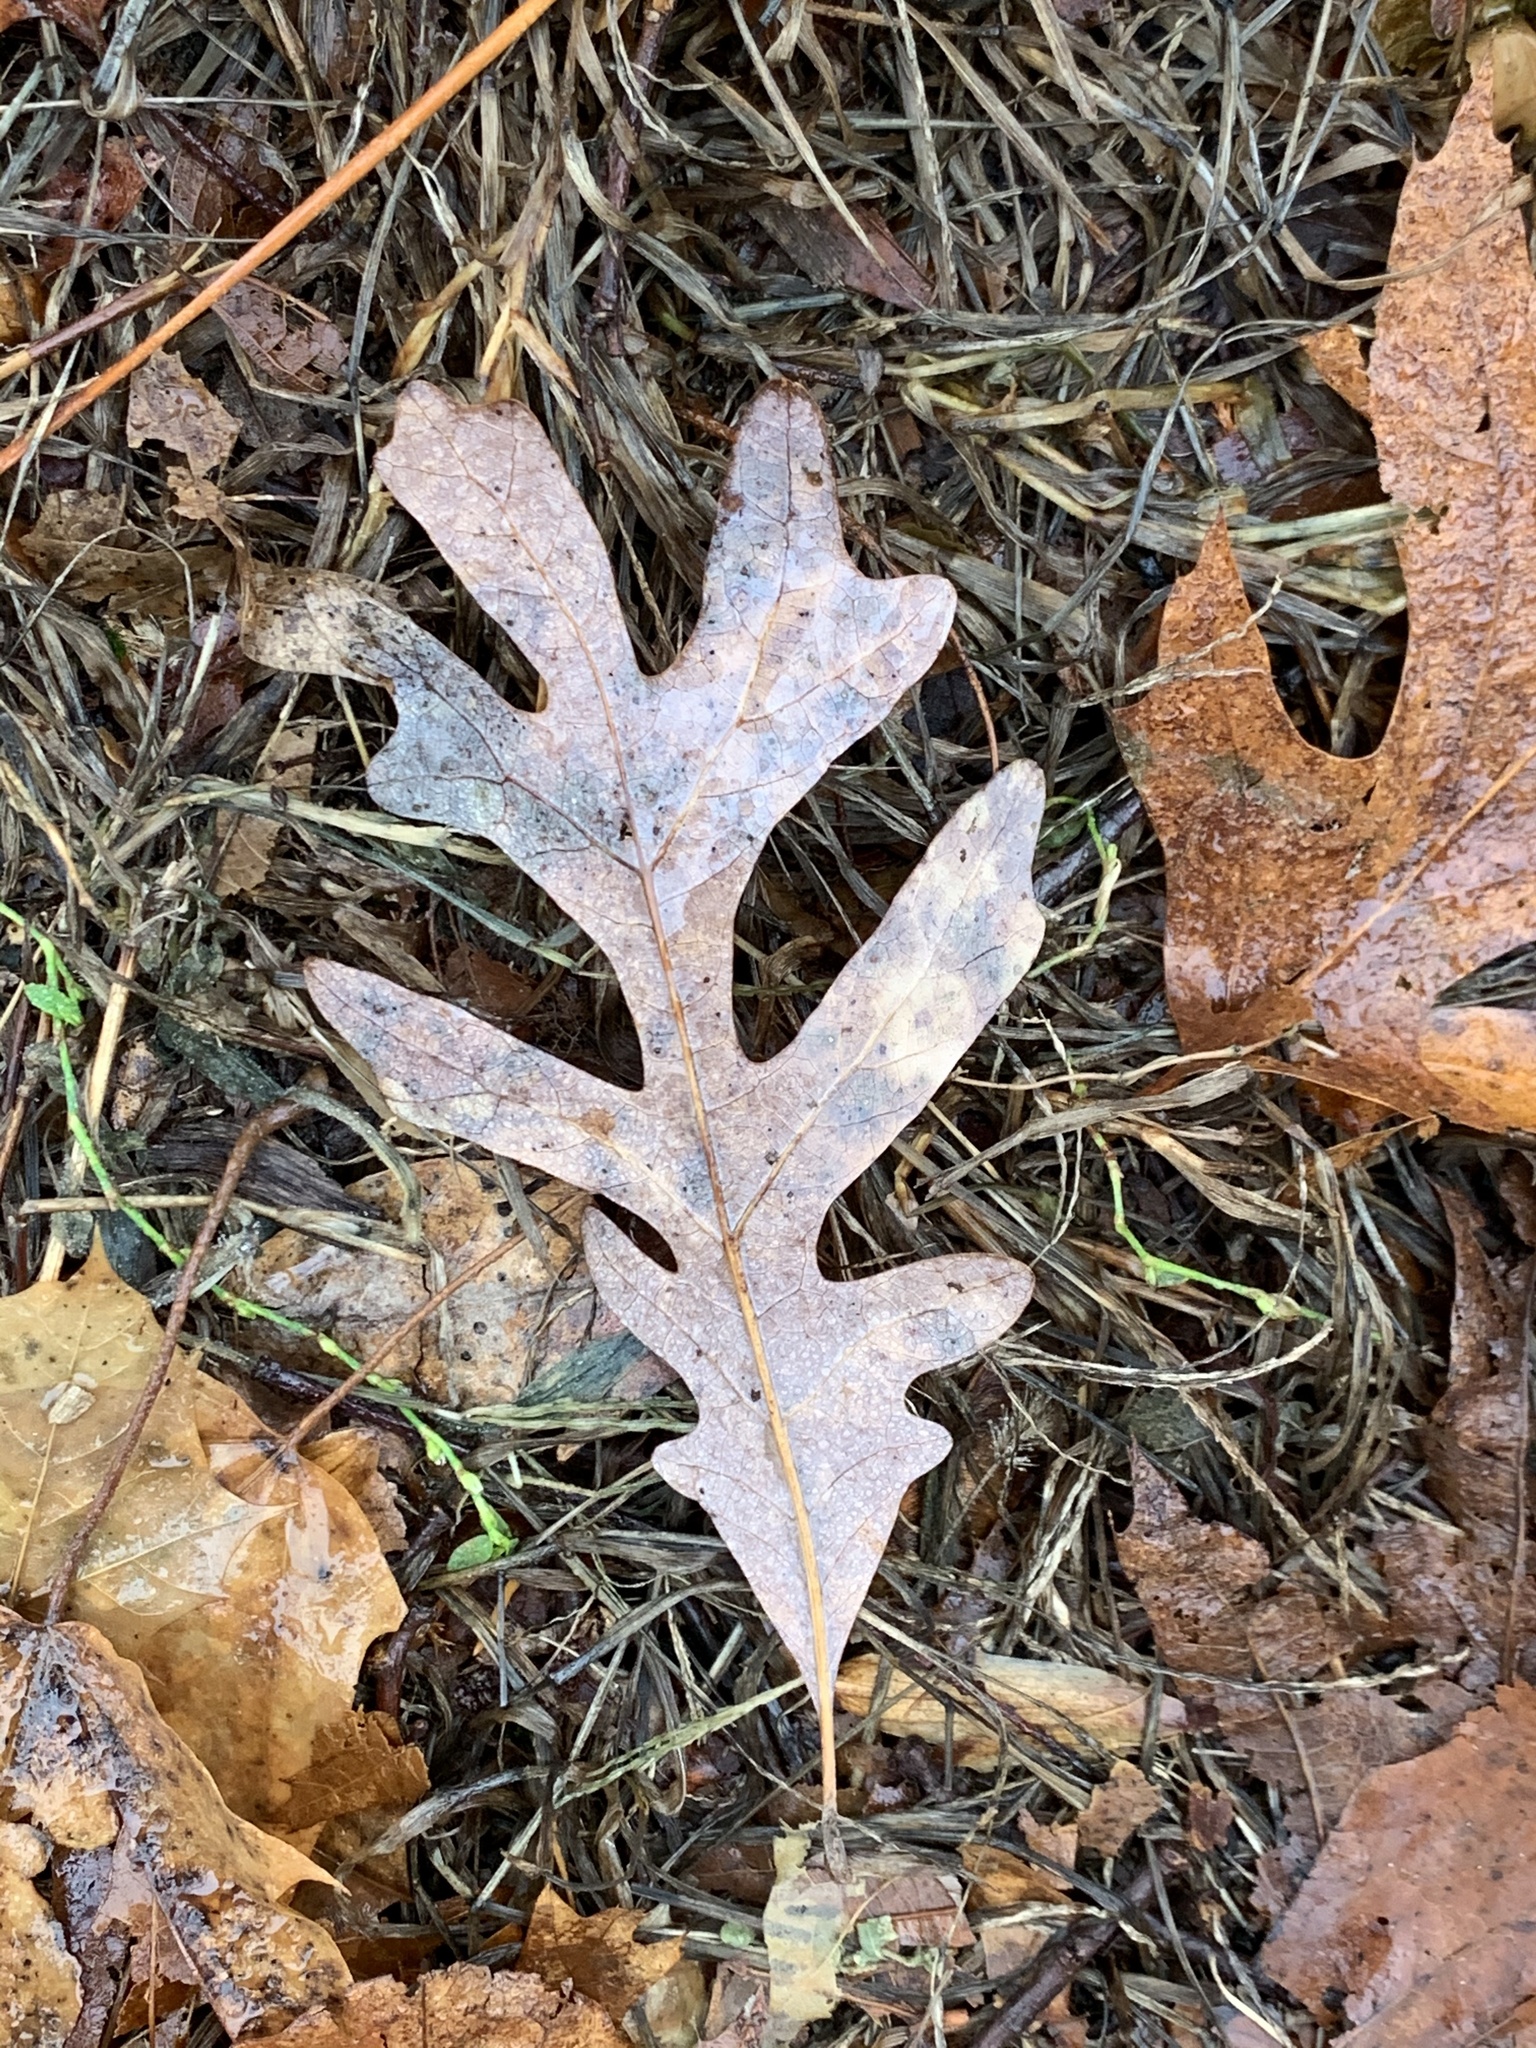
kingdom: Plantae
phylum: Tracheophyta
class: Magnoliopsida
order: Fagales
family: Fagaceae
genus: Quercus
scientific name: Quercus alba
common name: White oak
